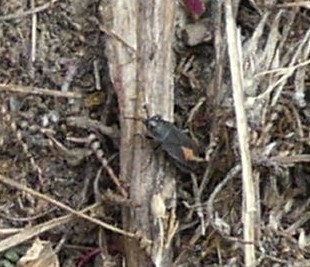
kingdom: Animalia
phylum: Arthropoda
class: Insecta
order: Hemiptera
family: Rhyparochromidae
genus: Aphanus
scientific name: Aphanus rolandri
